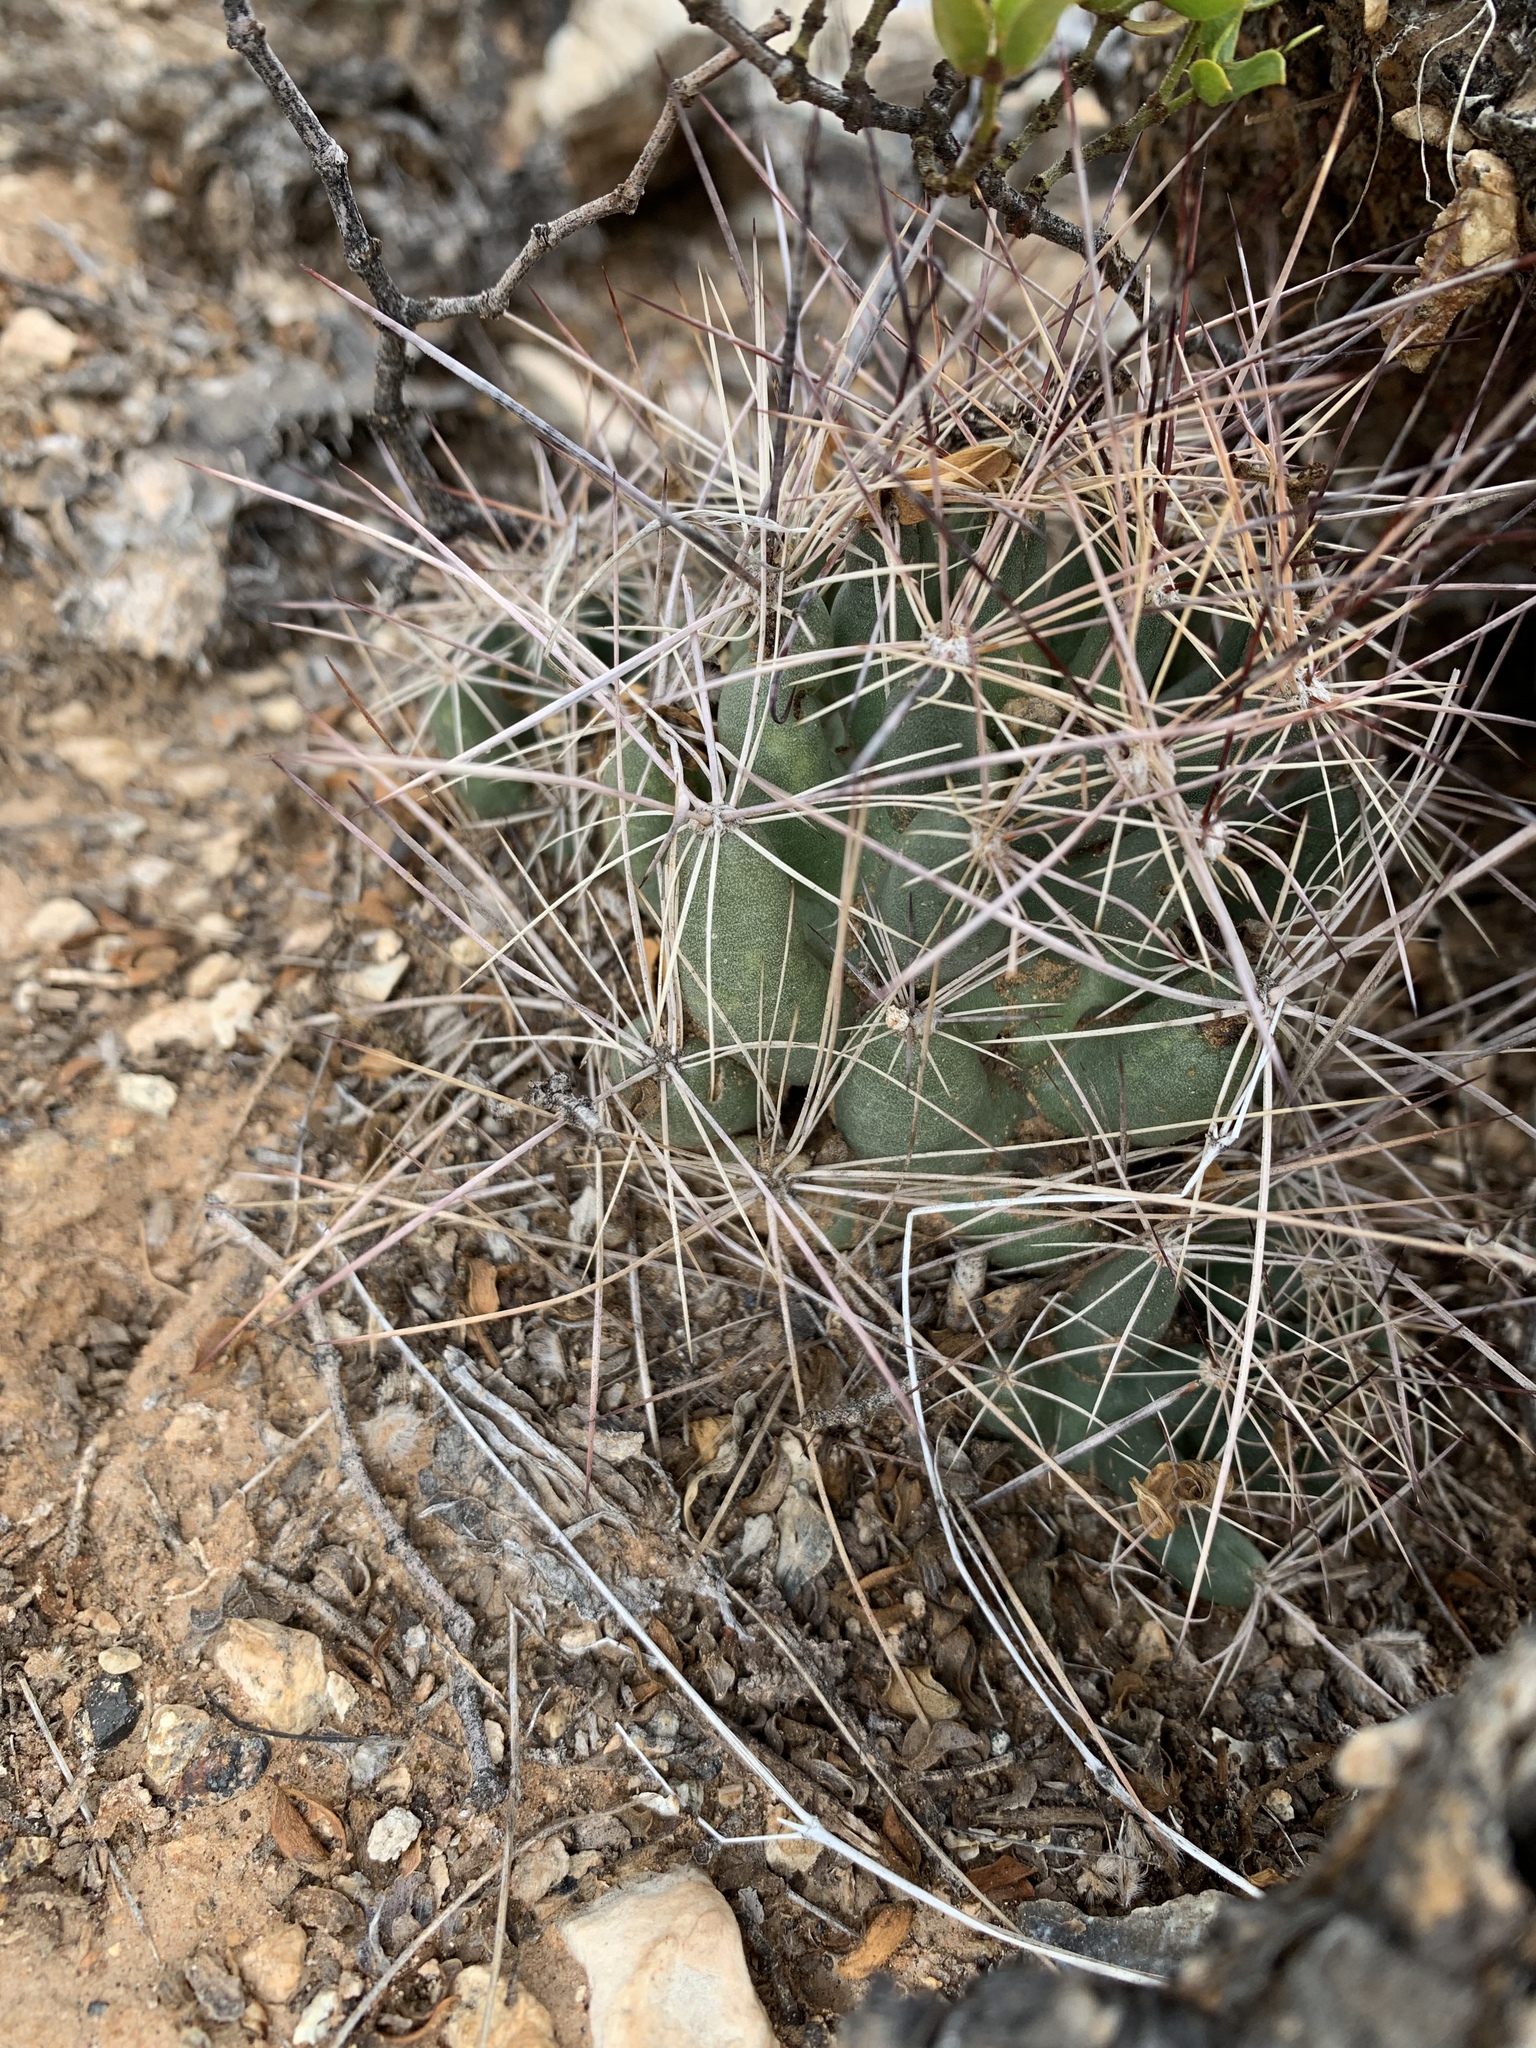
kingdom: Plantae
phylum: Tracheophyta
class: Magnoliopsida
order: Caryophyllales
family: Cactaceae
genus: Coryphantha
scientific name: Coryphantha macromeris
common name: Nipple beehive cactus
